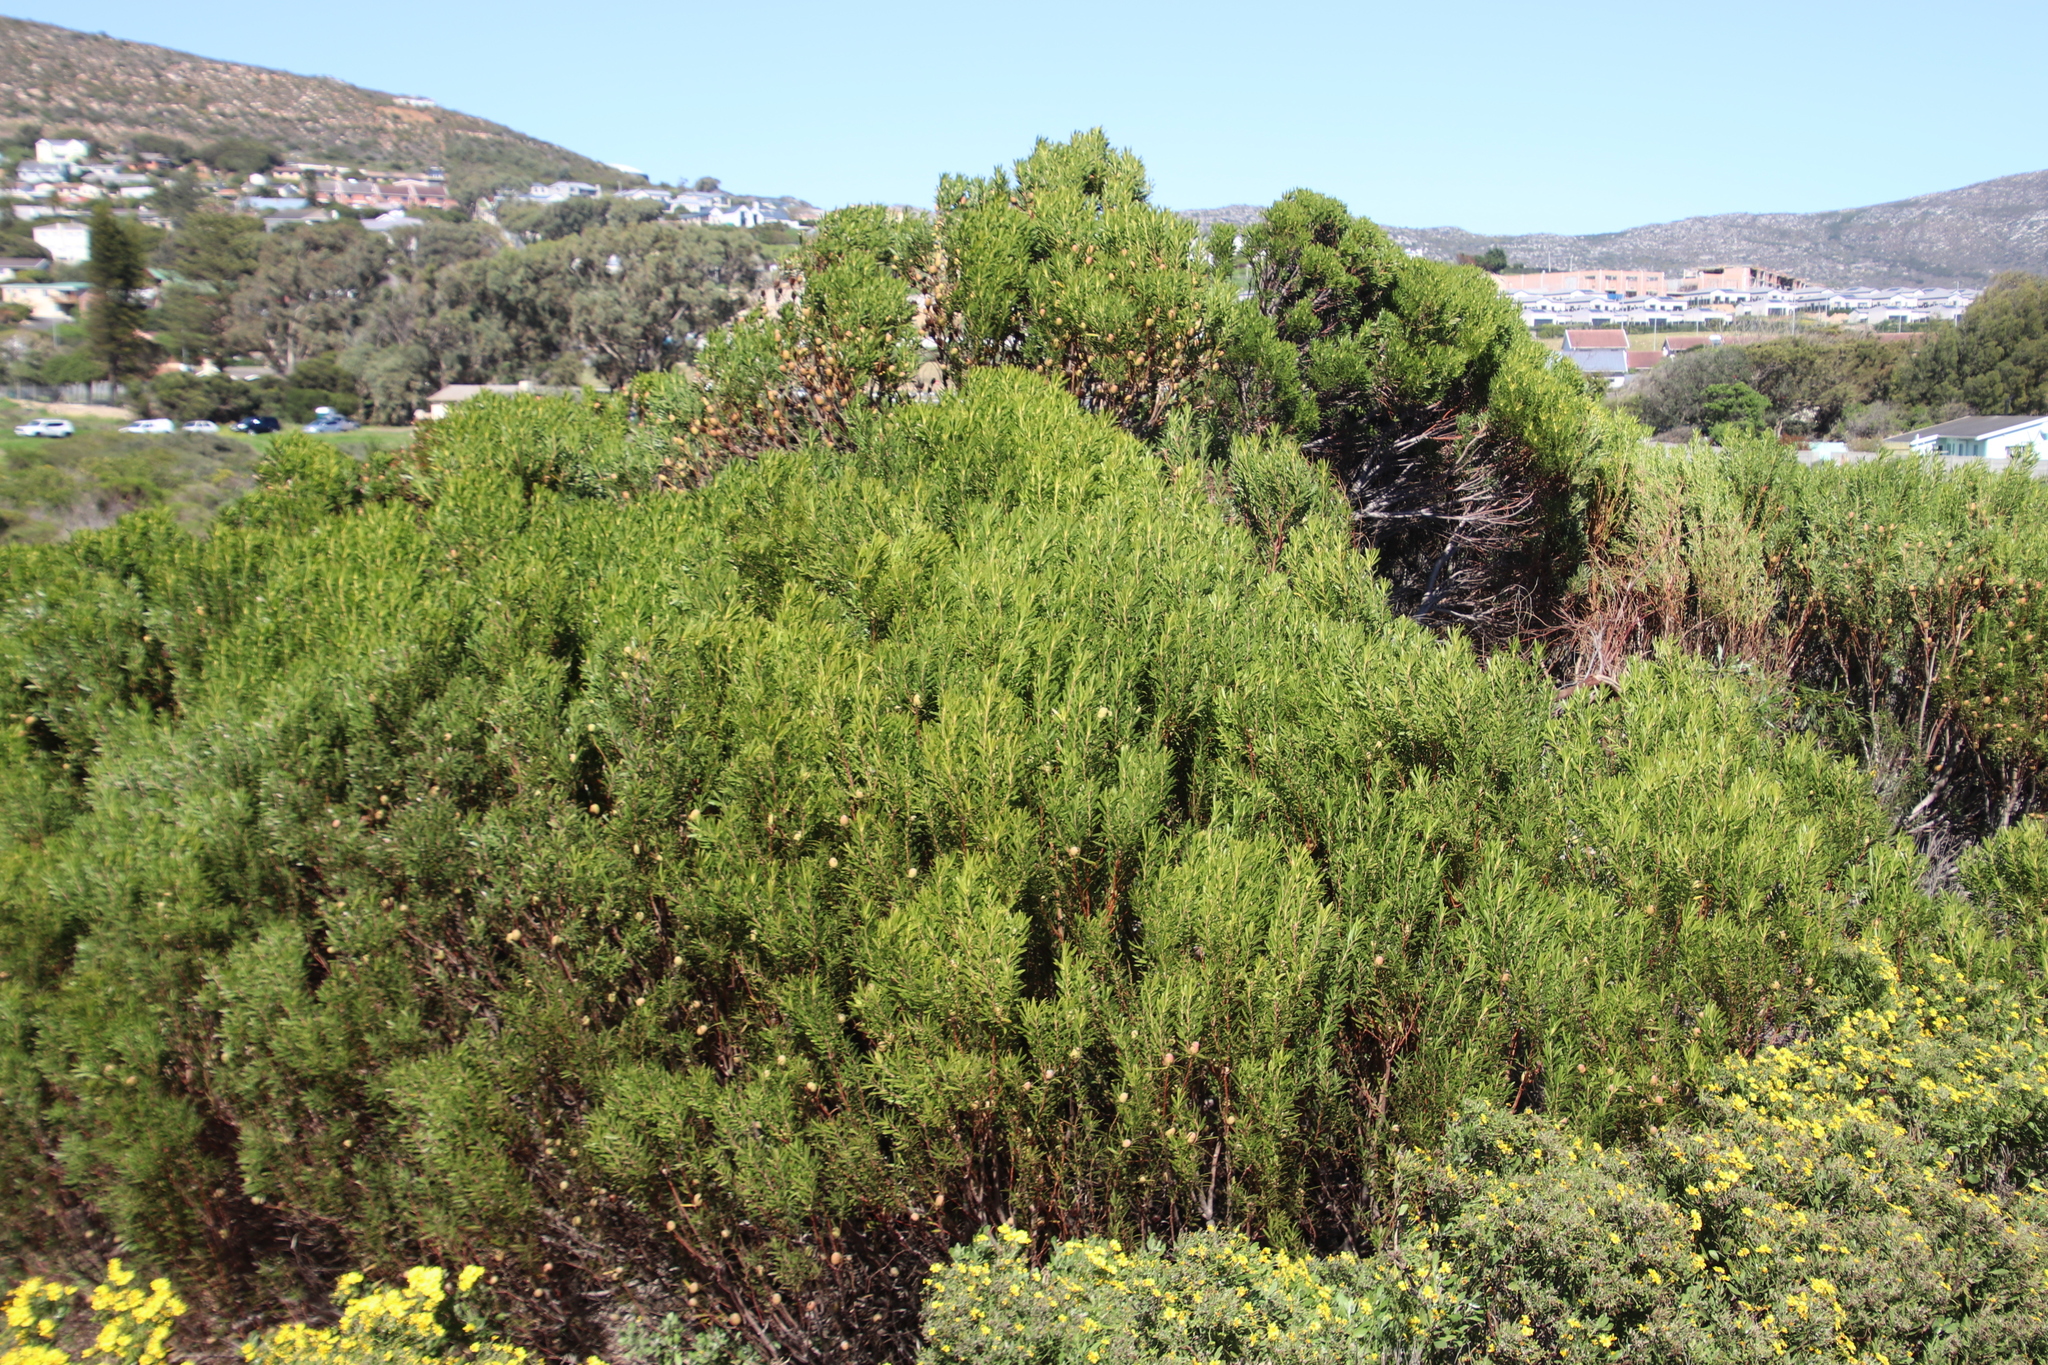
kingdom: Plantae
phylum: Tracheophyta
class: Magnoliopsida
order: Proteales
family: Proteaceae
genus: Leucadendron
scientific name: Leucadendron coniferum
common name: Dune conebush
